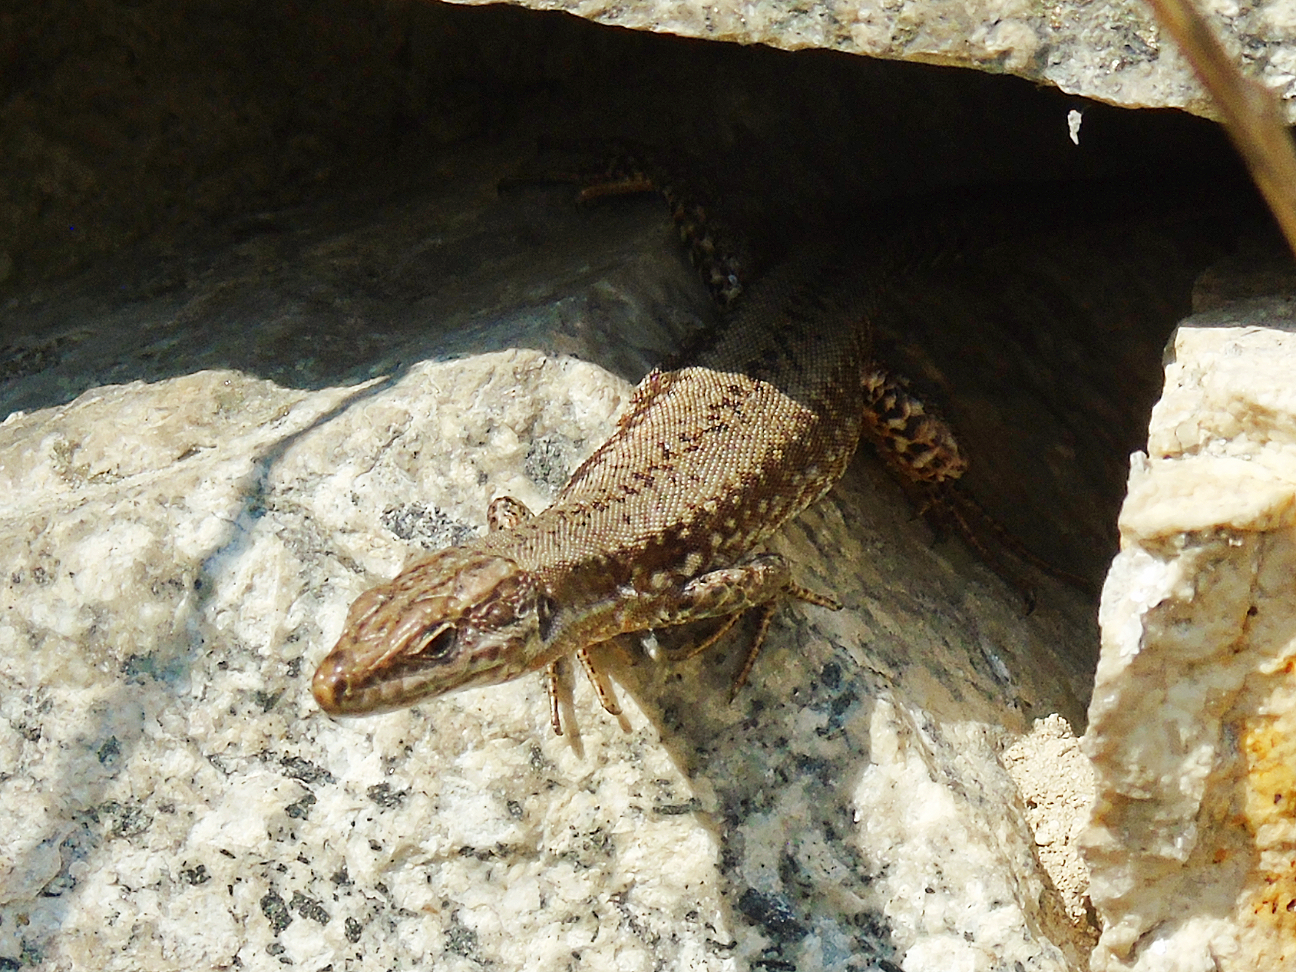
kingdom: Animalia
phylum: Chordata
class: Squamata
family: Lacertidae
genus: Podarcis
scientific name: Podarcis muralis
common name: Common wall lizard
